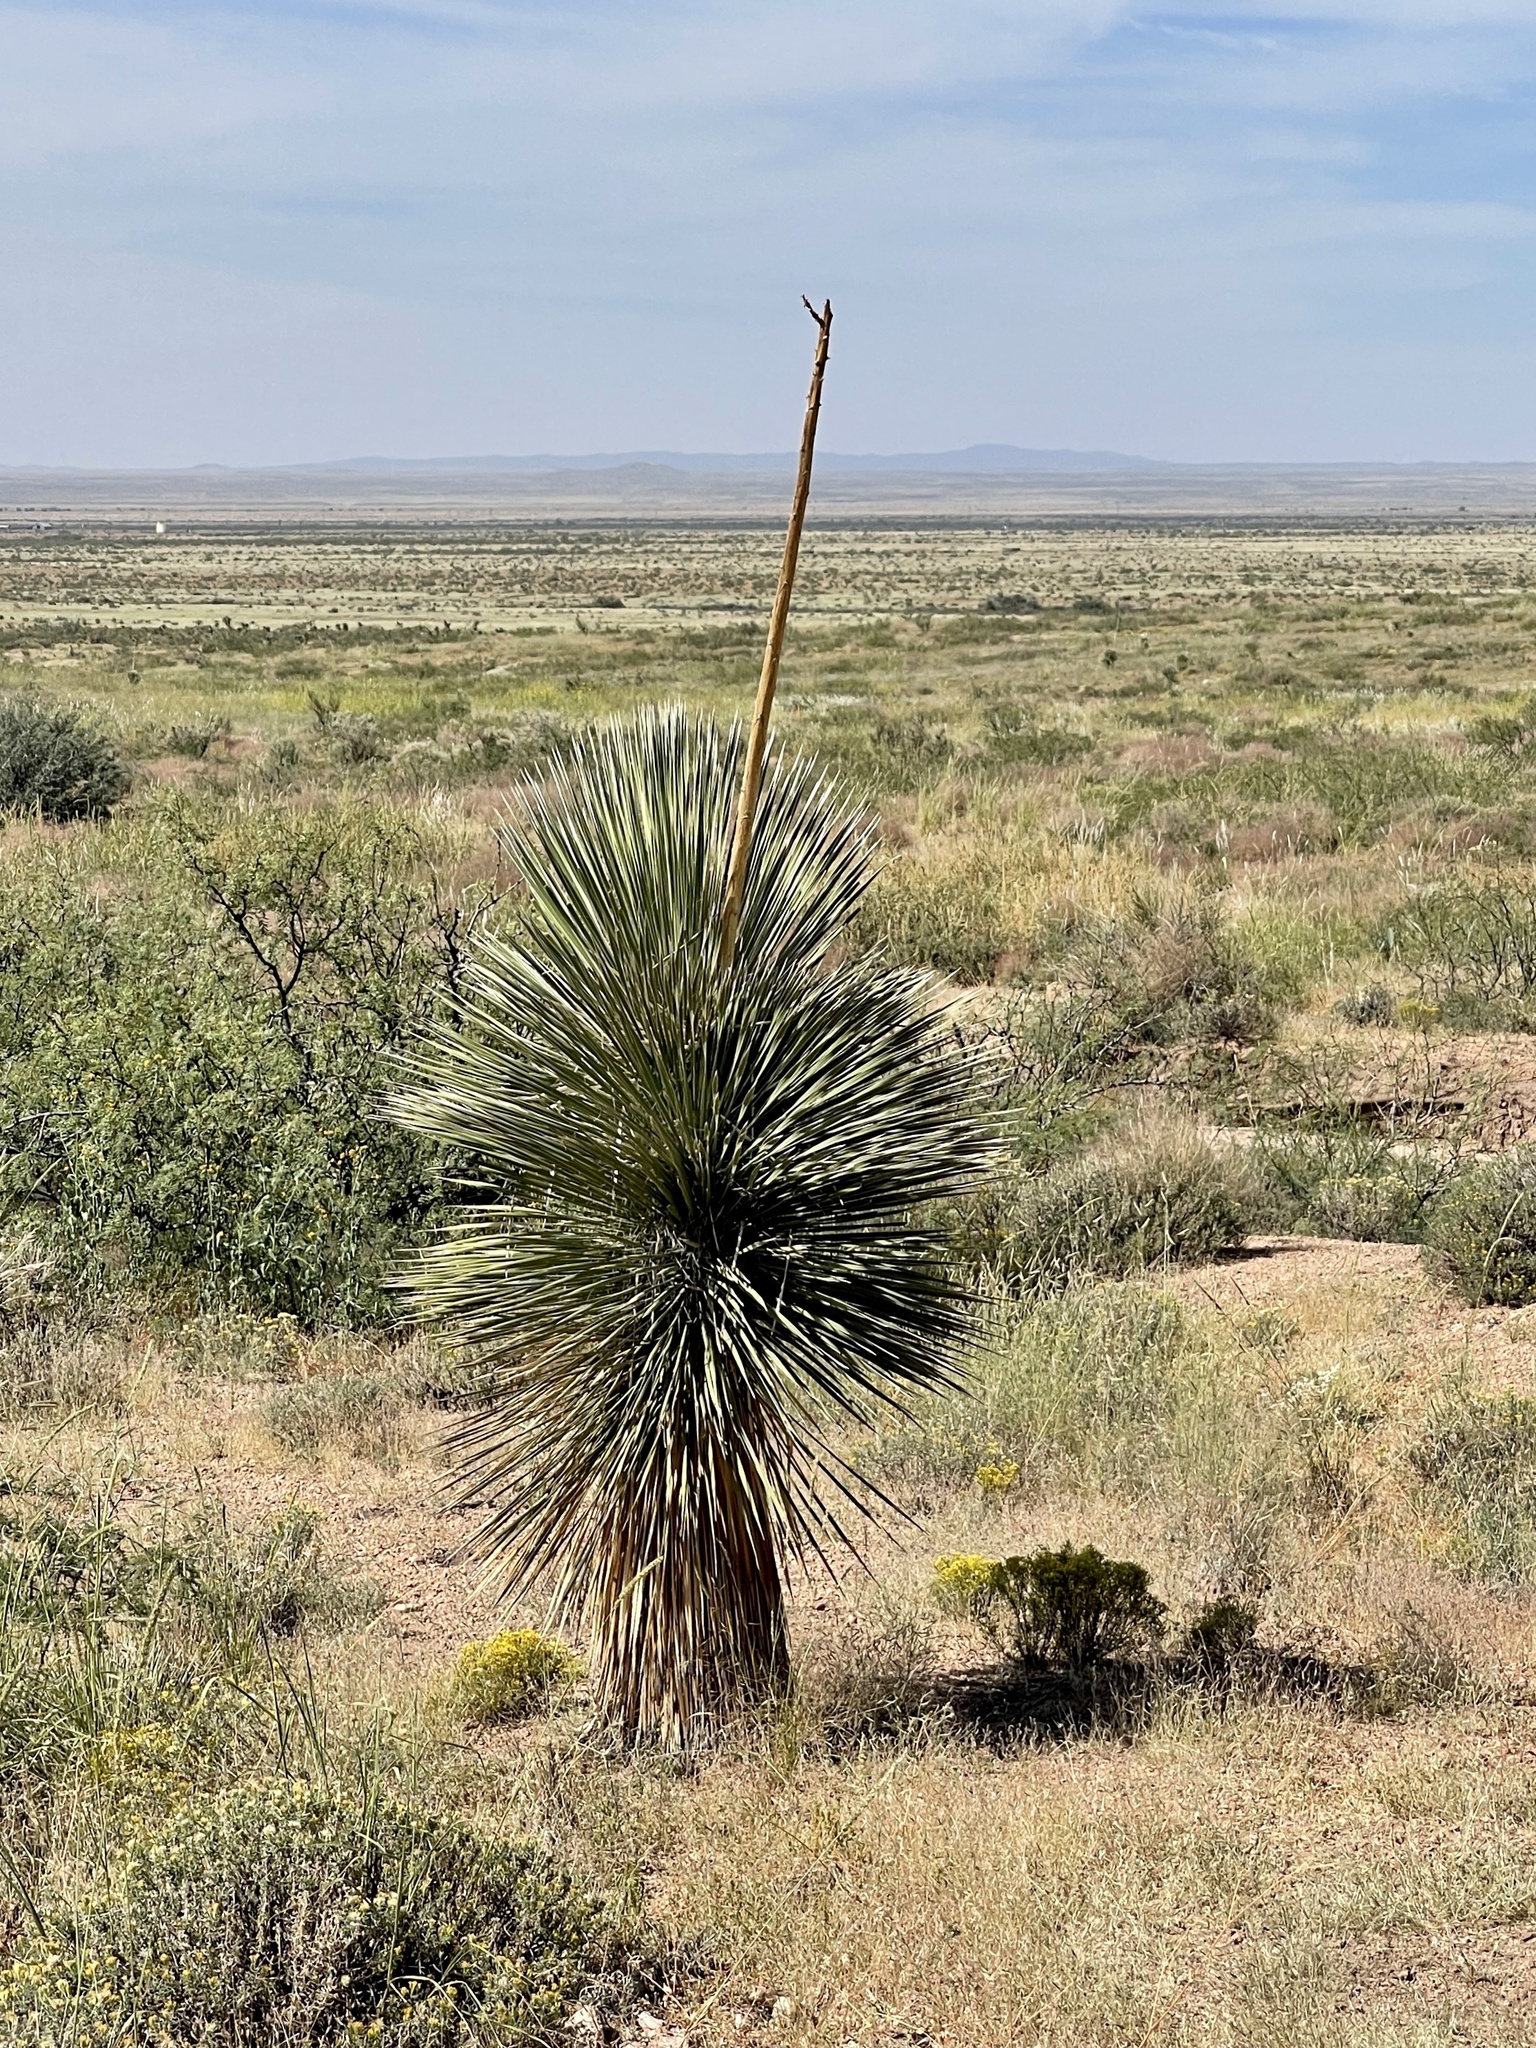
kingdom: Plantae
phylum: Tracheophyta
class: Liliopsida
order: Asparagales
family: Asparagaceae
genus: Yucca
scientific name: Yucca elata
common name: Palmella
